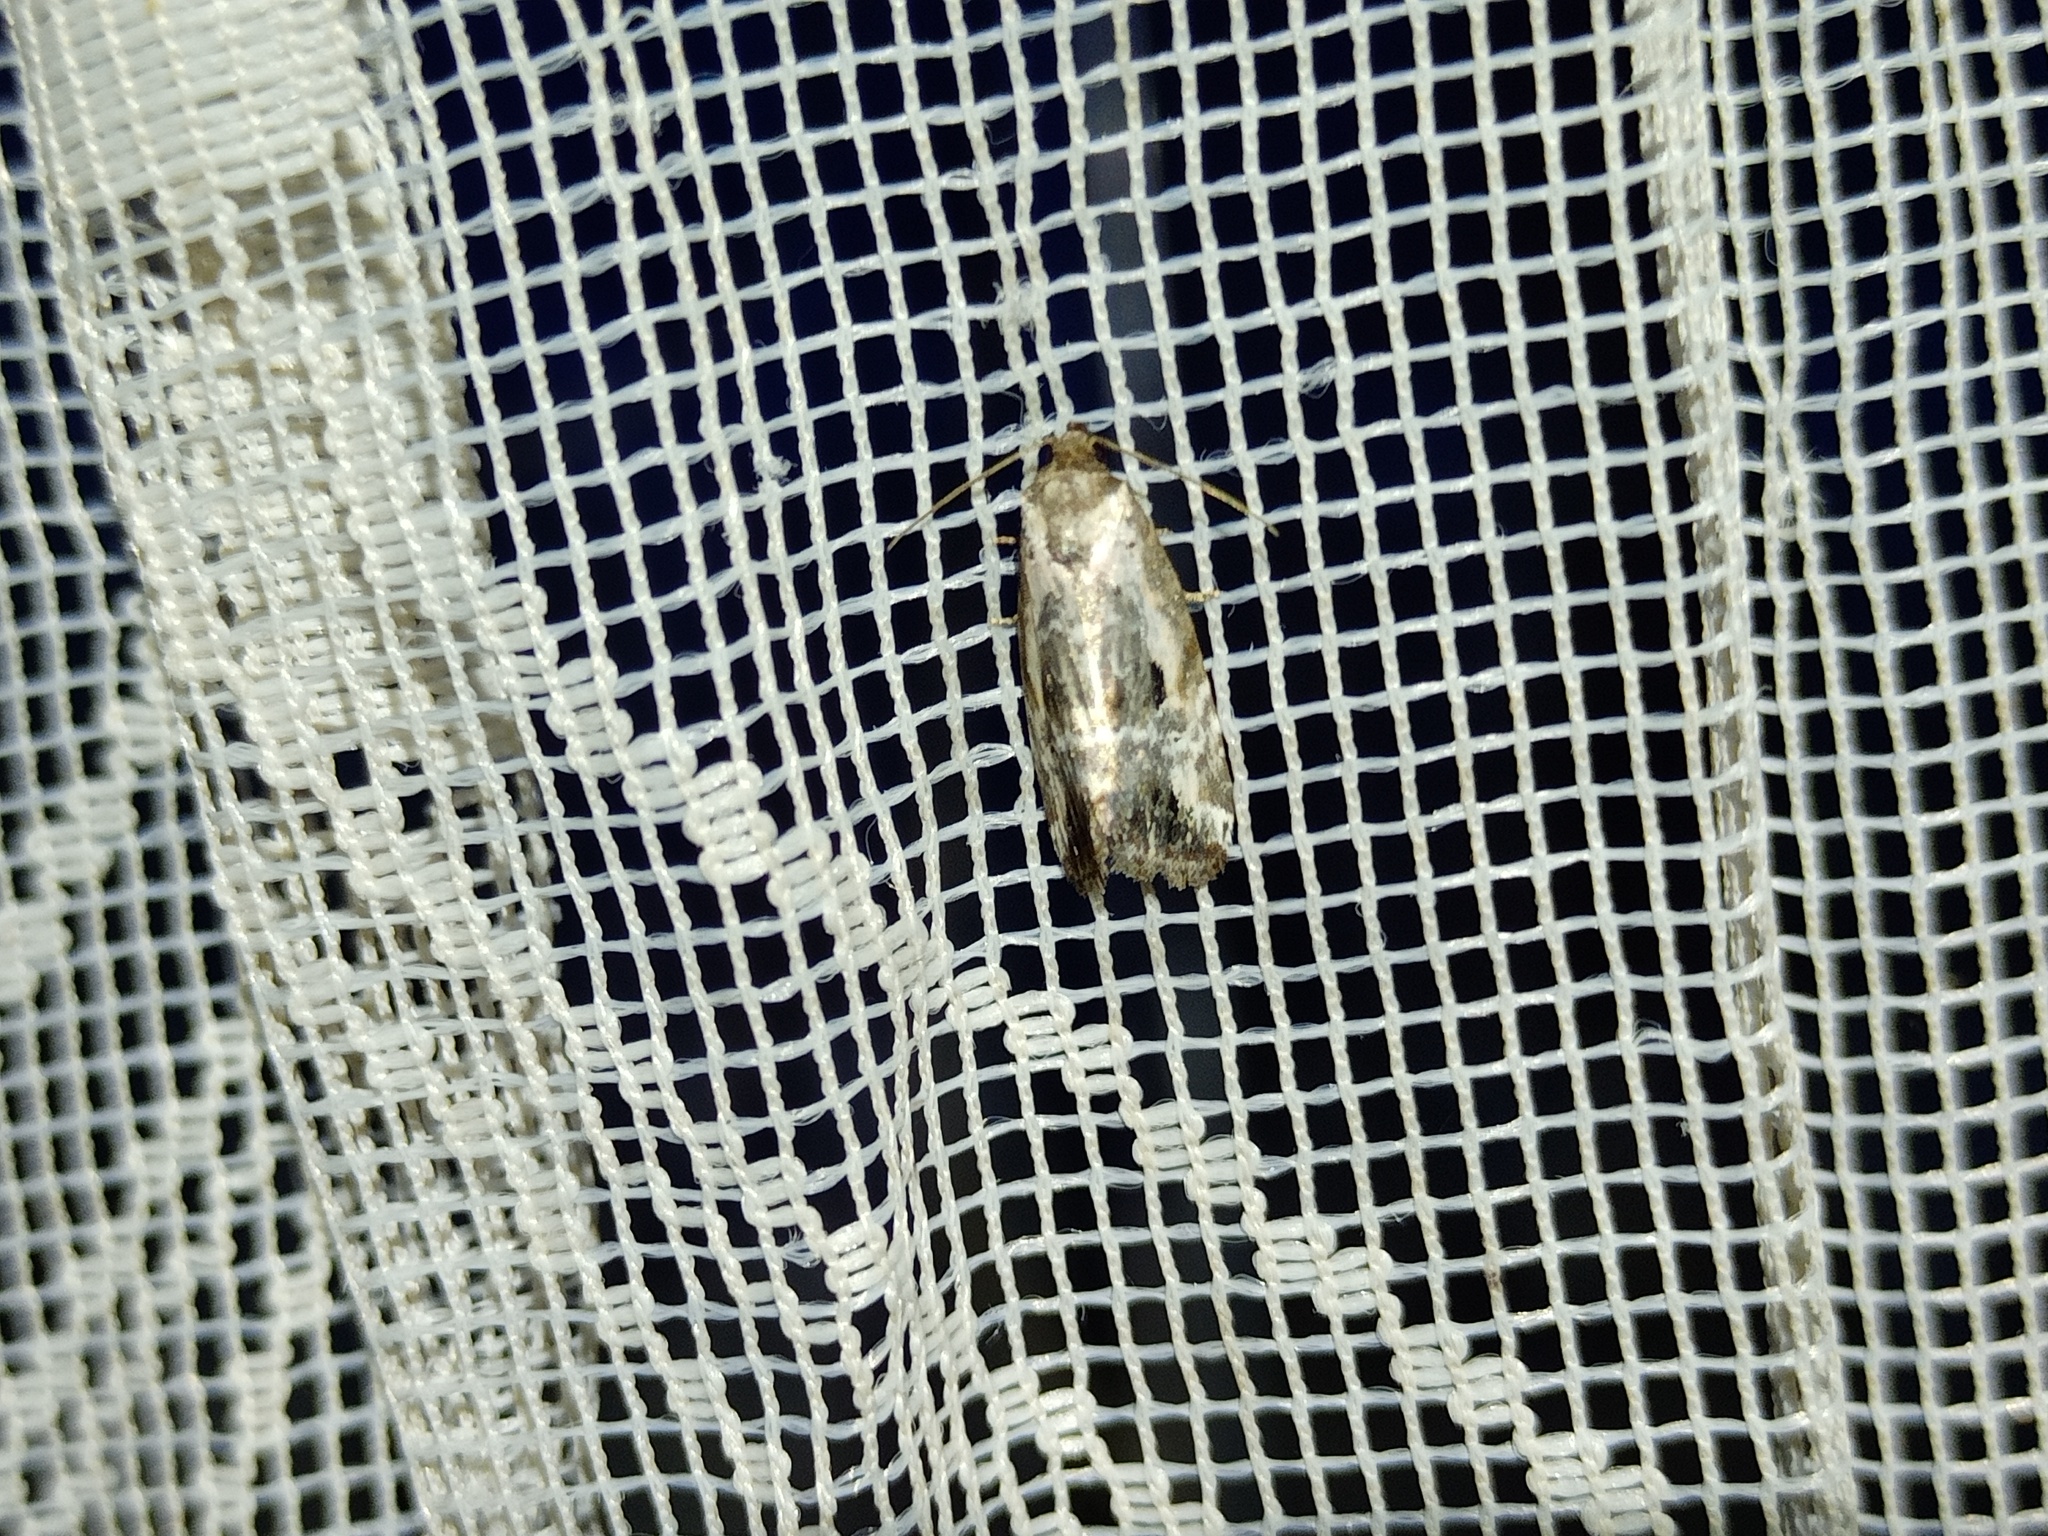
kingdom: Animalia
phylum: Arthropoda
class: Insecta
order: Lepidoptera
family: Noctuidae
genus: Elaphria
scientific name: Elaphria venustula
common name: Rosy marbled
